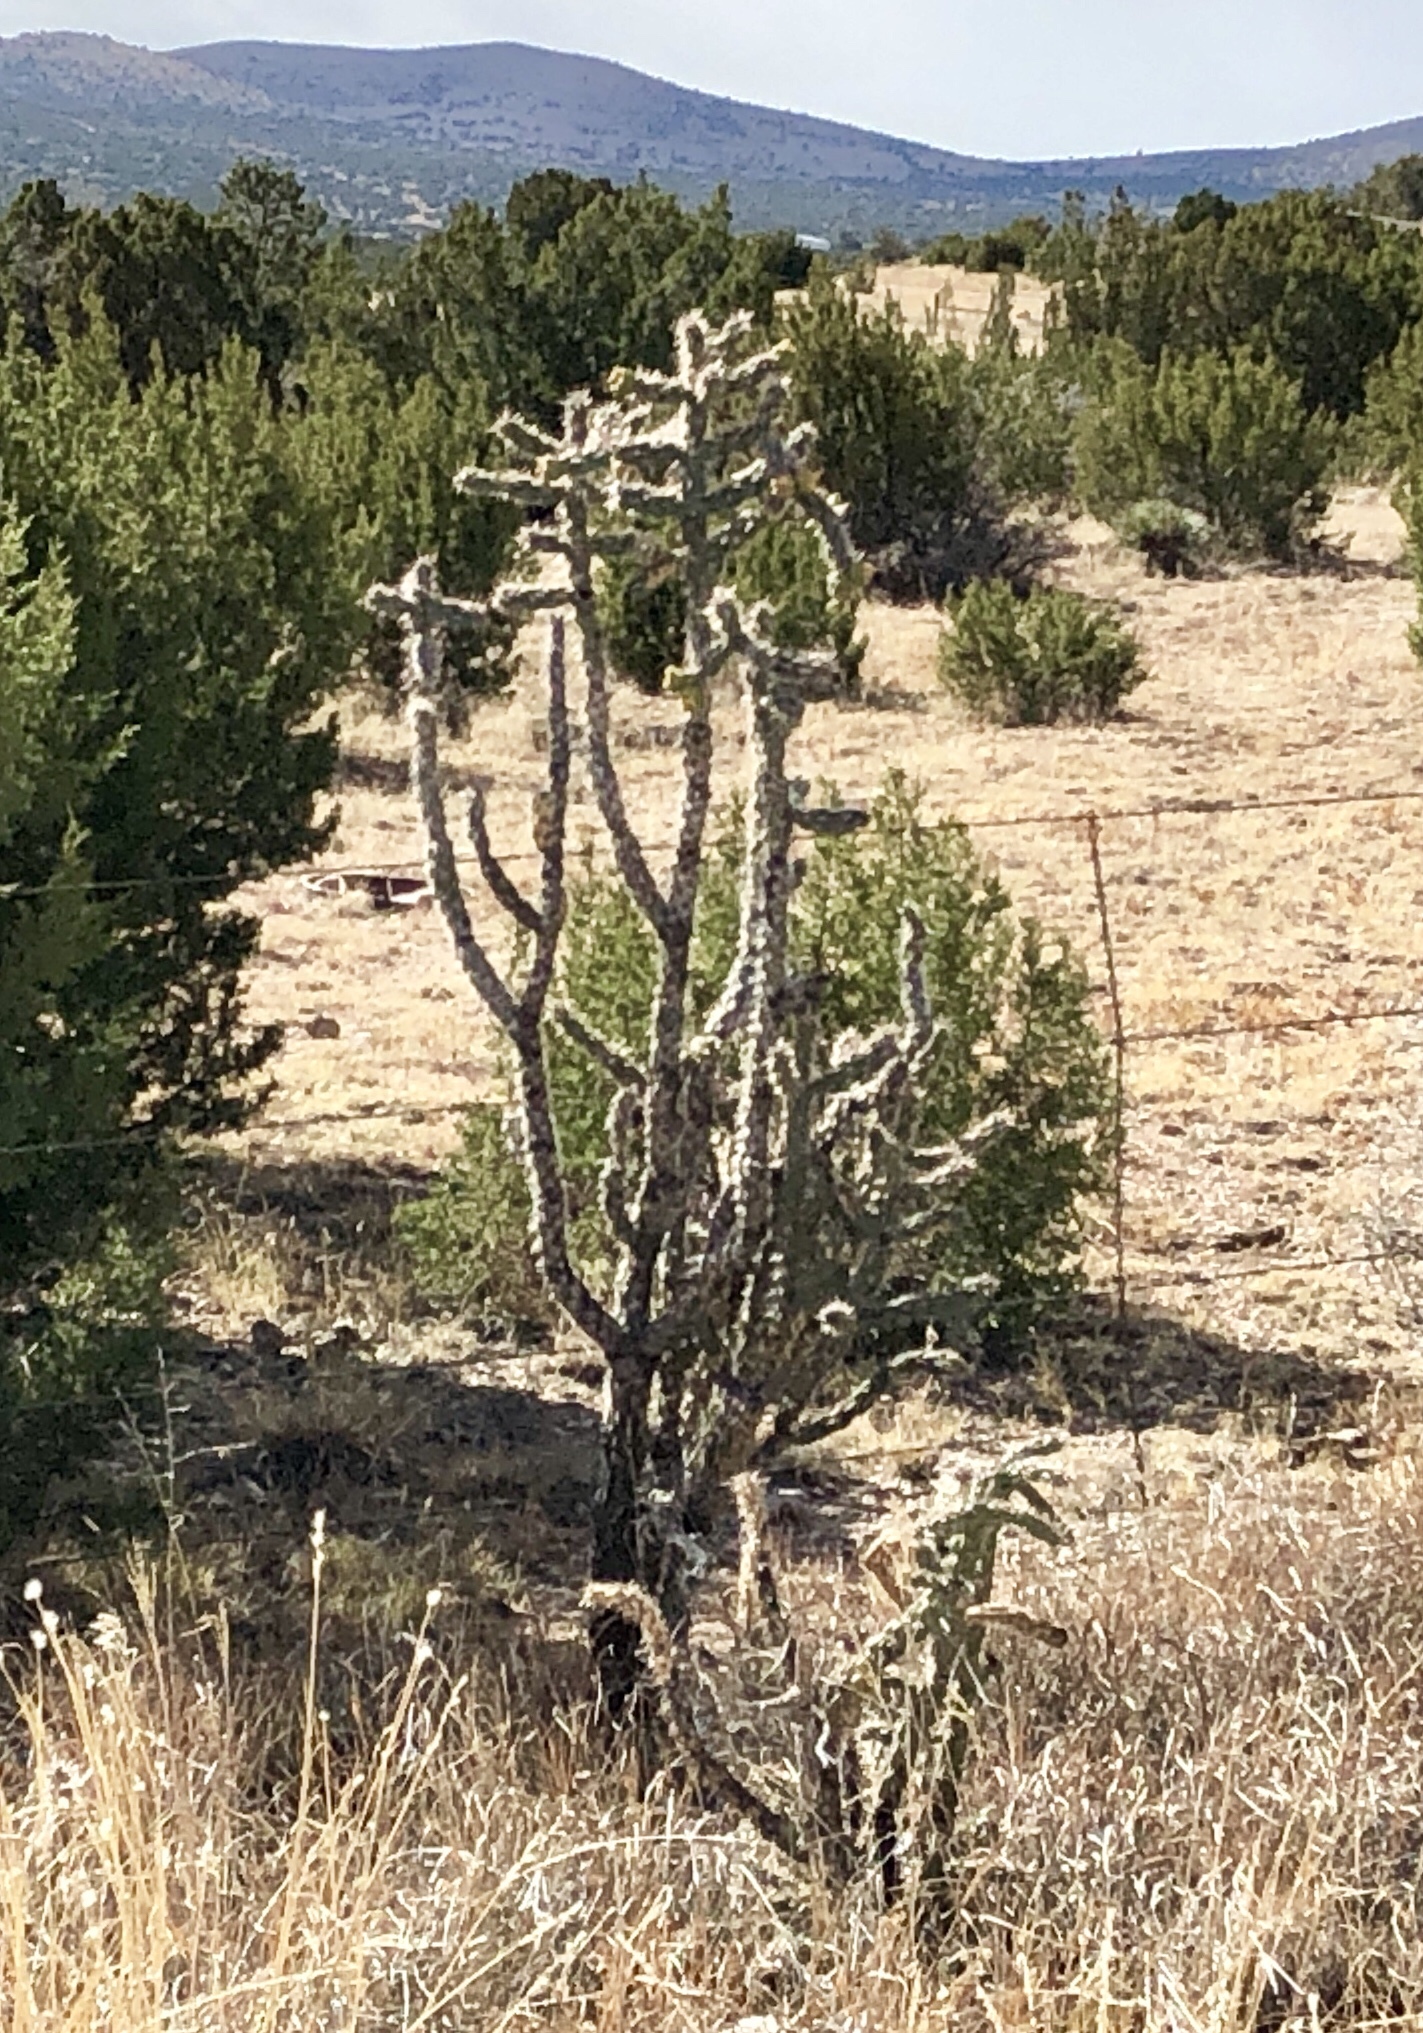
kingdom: Plantae
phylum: Tracheophyta
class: Magnoliopsida
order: Caryophyllales
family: Cactaceae
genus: Cylindropuntia
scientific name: Cylindropuntia imbricata
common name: Candelabrum cactus
